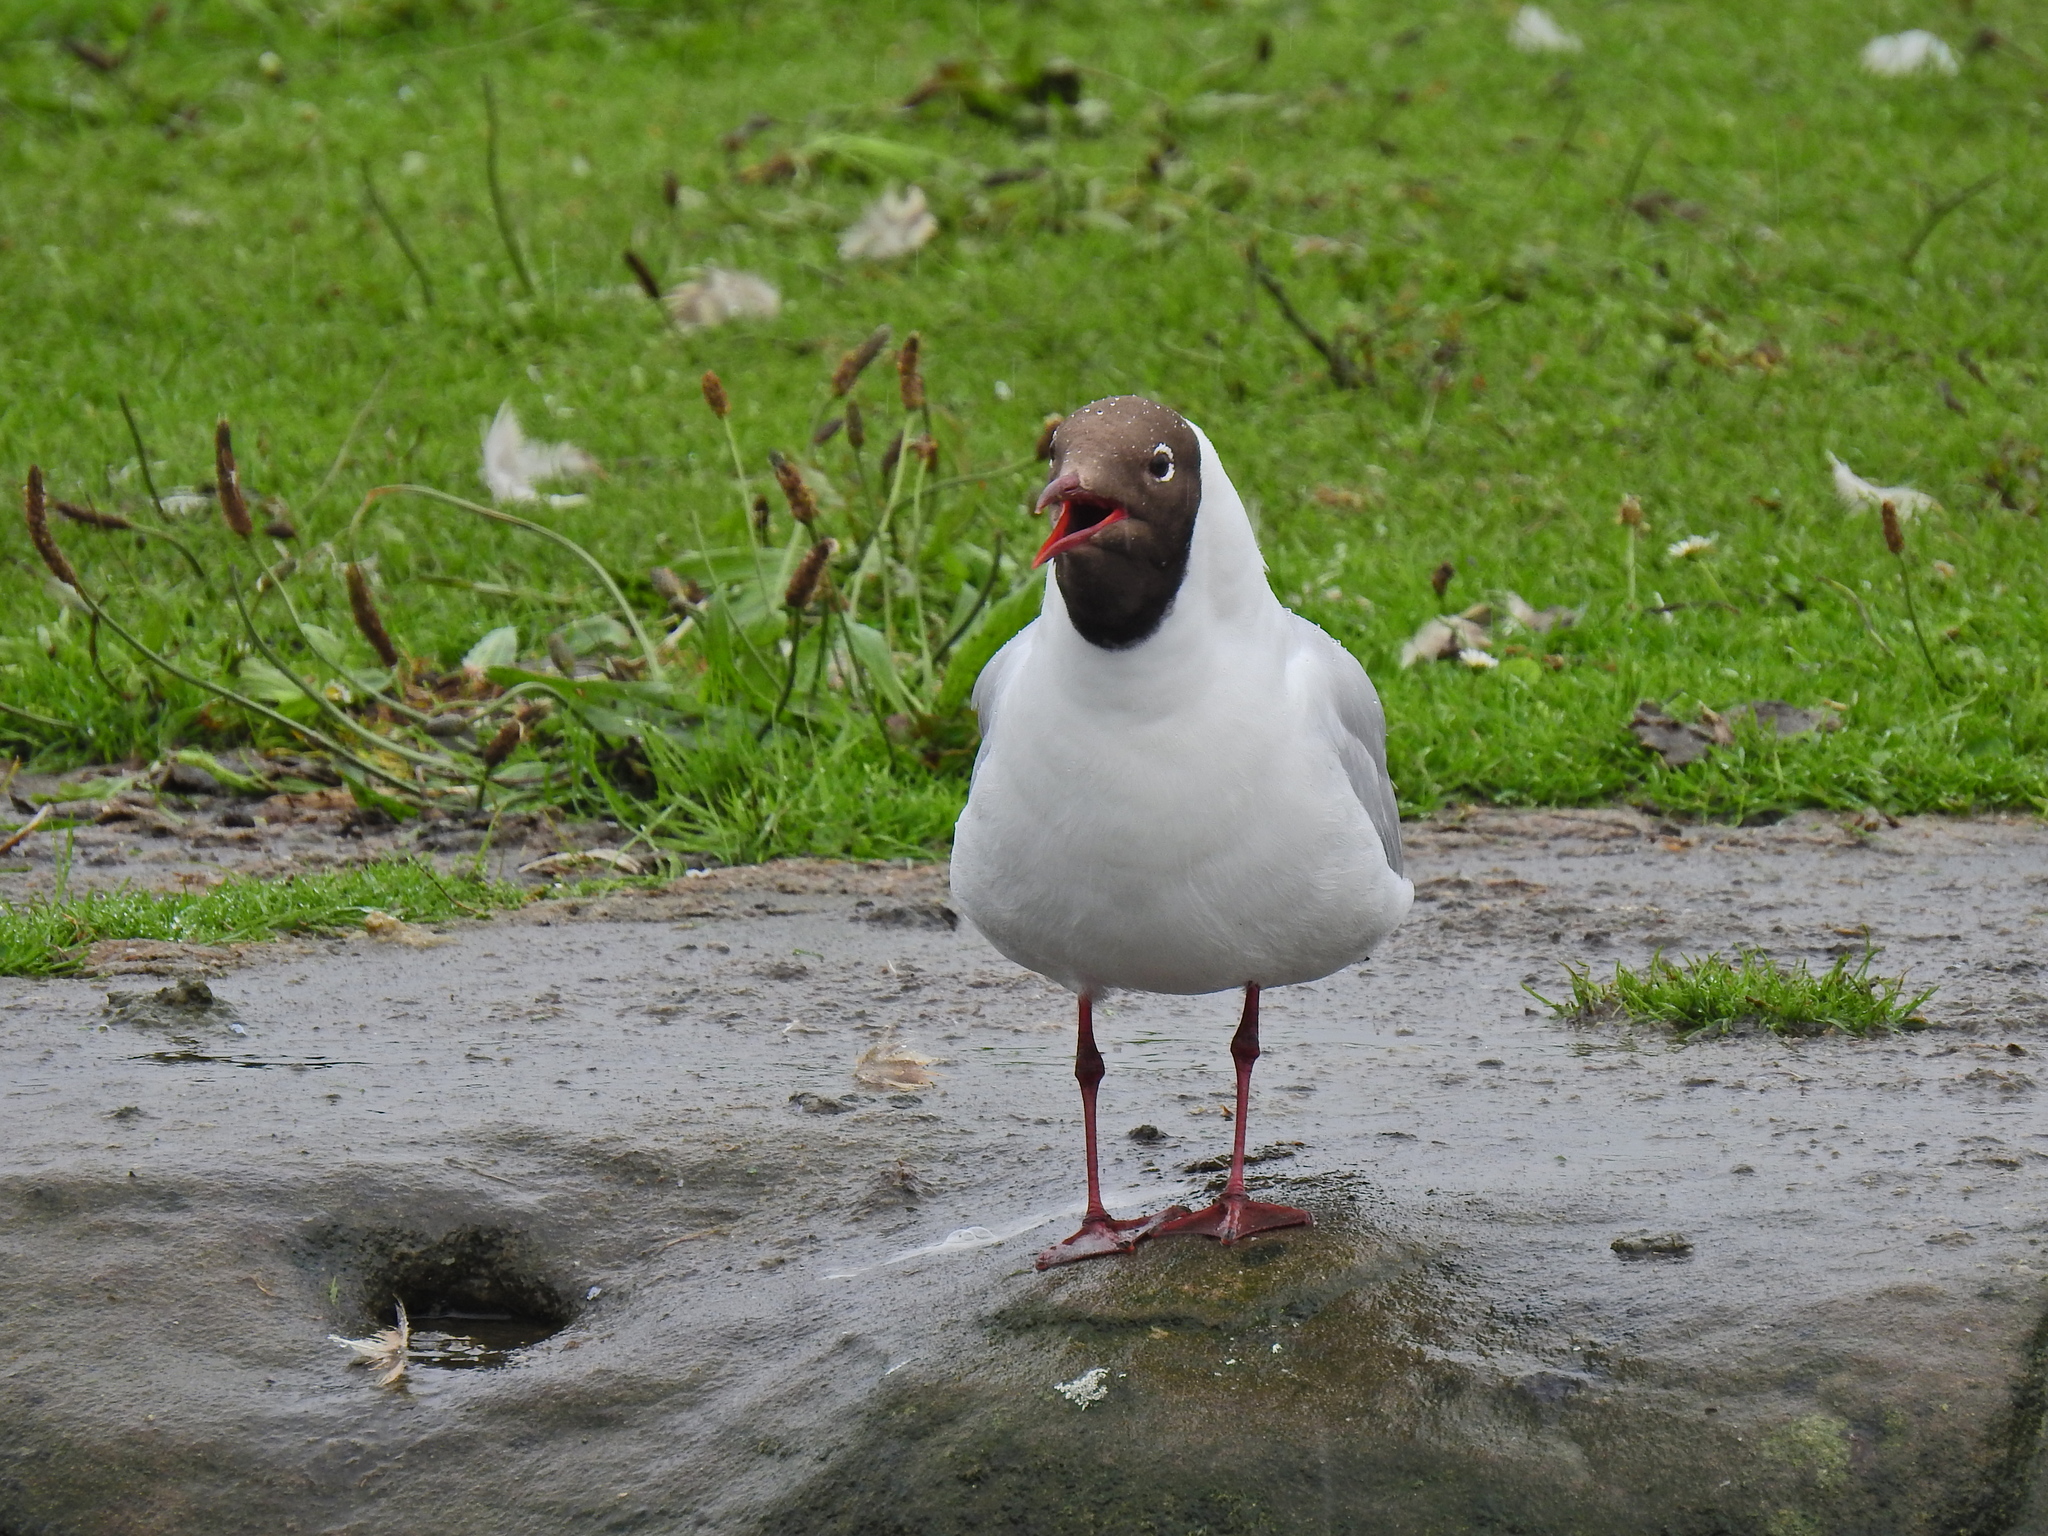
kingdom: Animalia
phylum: Chordata
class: Aves
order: Charadriiformes
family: Laridae
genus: Chroicocephalus
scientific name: Chroicocephalus ridibundus
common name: Black-headed gull
